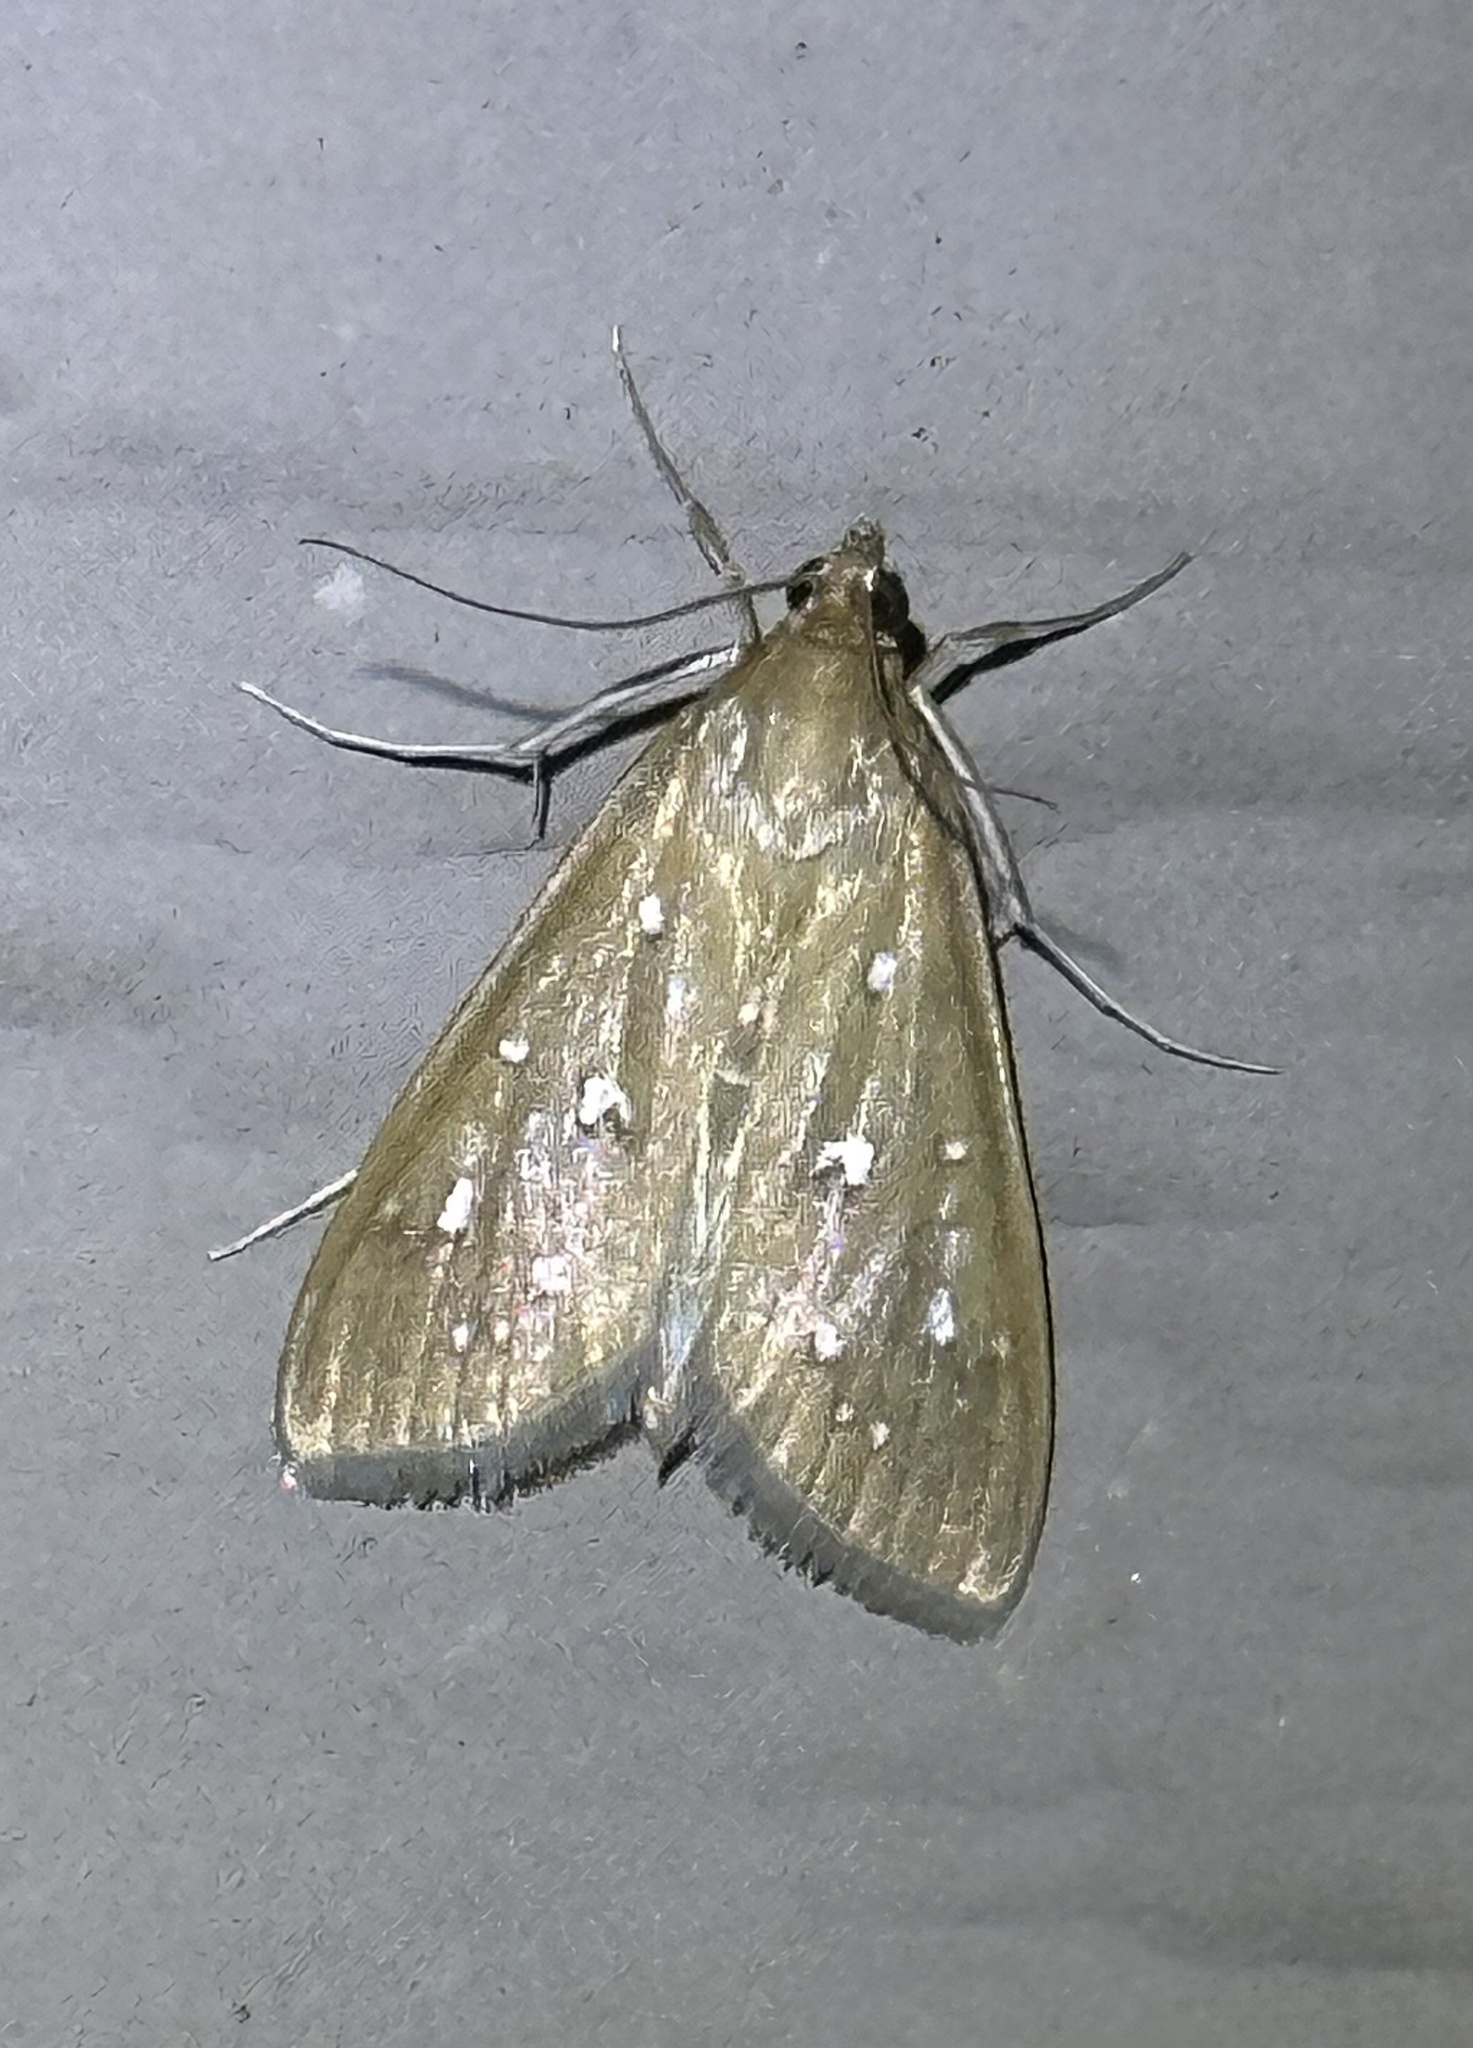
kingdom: Animalia
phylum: Arthropoda
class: Insecta
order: Lepidoptera
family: Crambidae
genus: Diastictis
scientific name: Diastictis ventralis
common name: White-spotted brown
